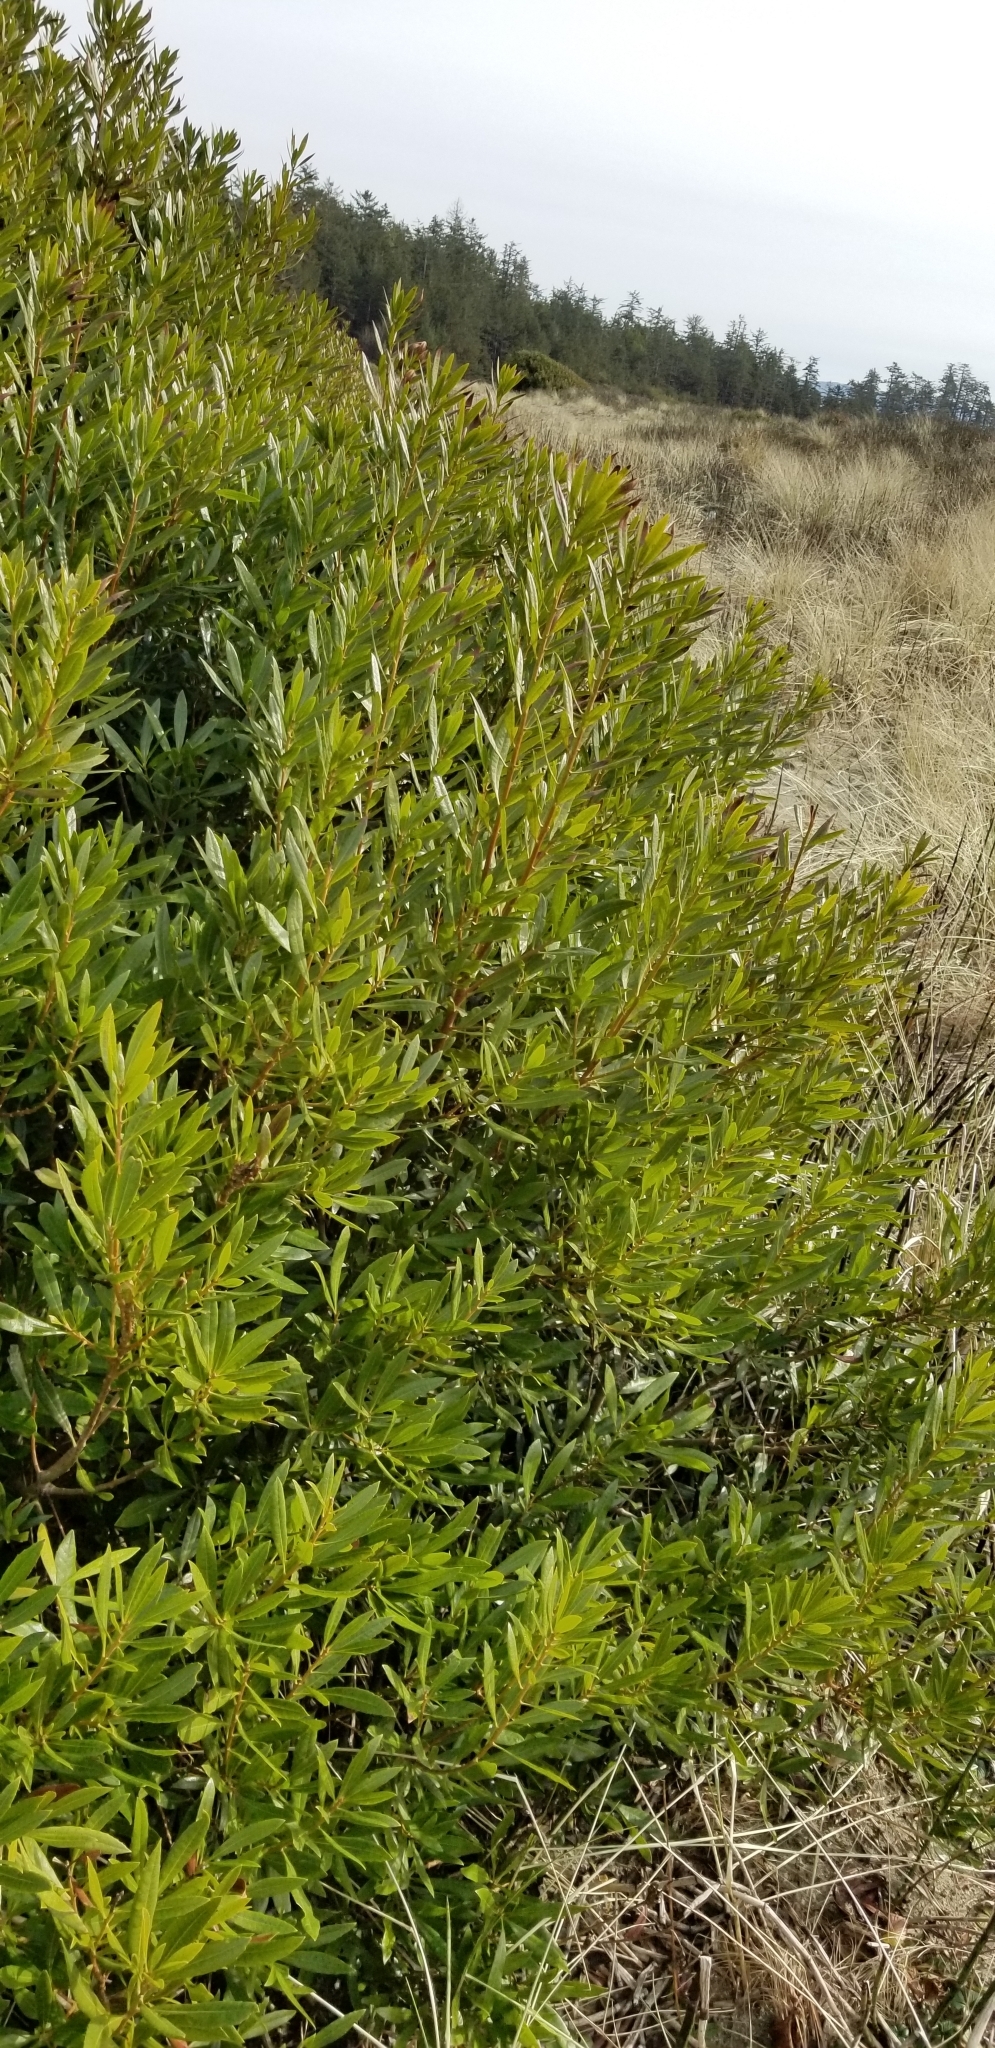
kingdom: Plantae
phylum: Tracheophyta
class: Magnoliopsida
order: Fagales
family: Myricaceae
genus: Morella
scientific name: Morella californica
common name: California wax-myrtle
